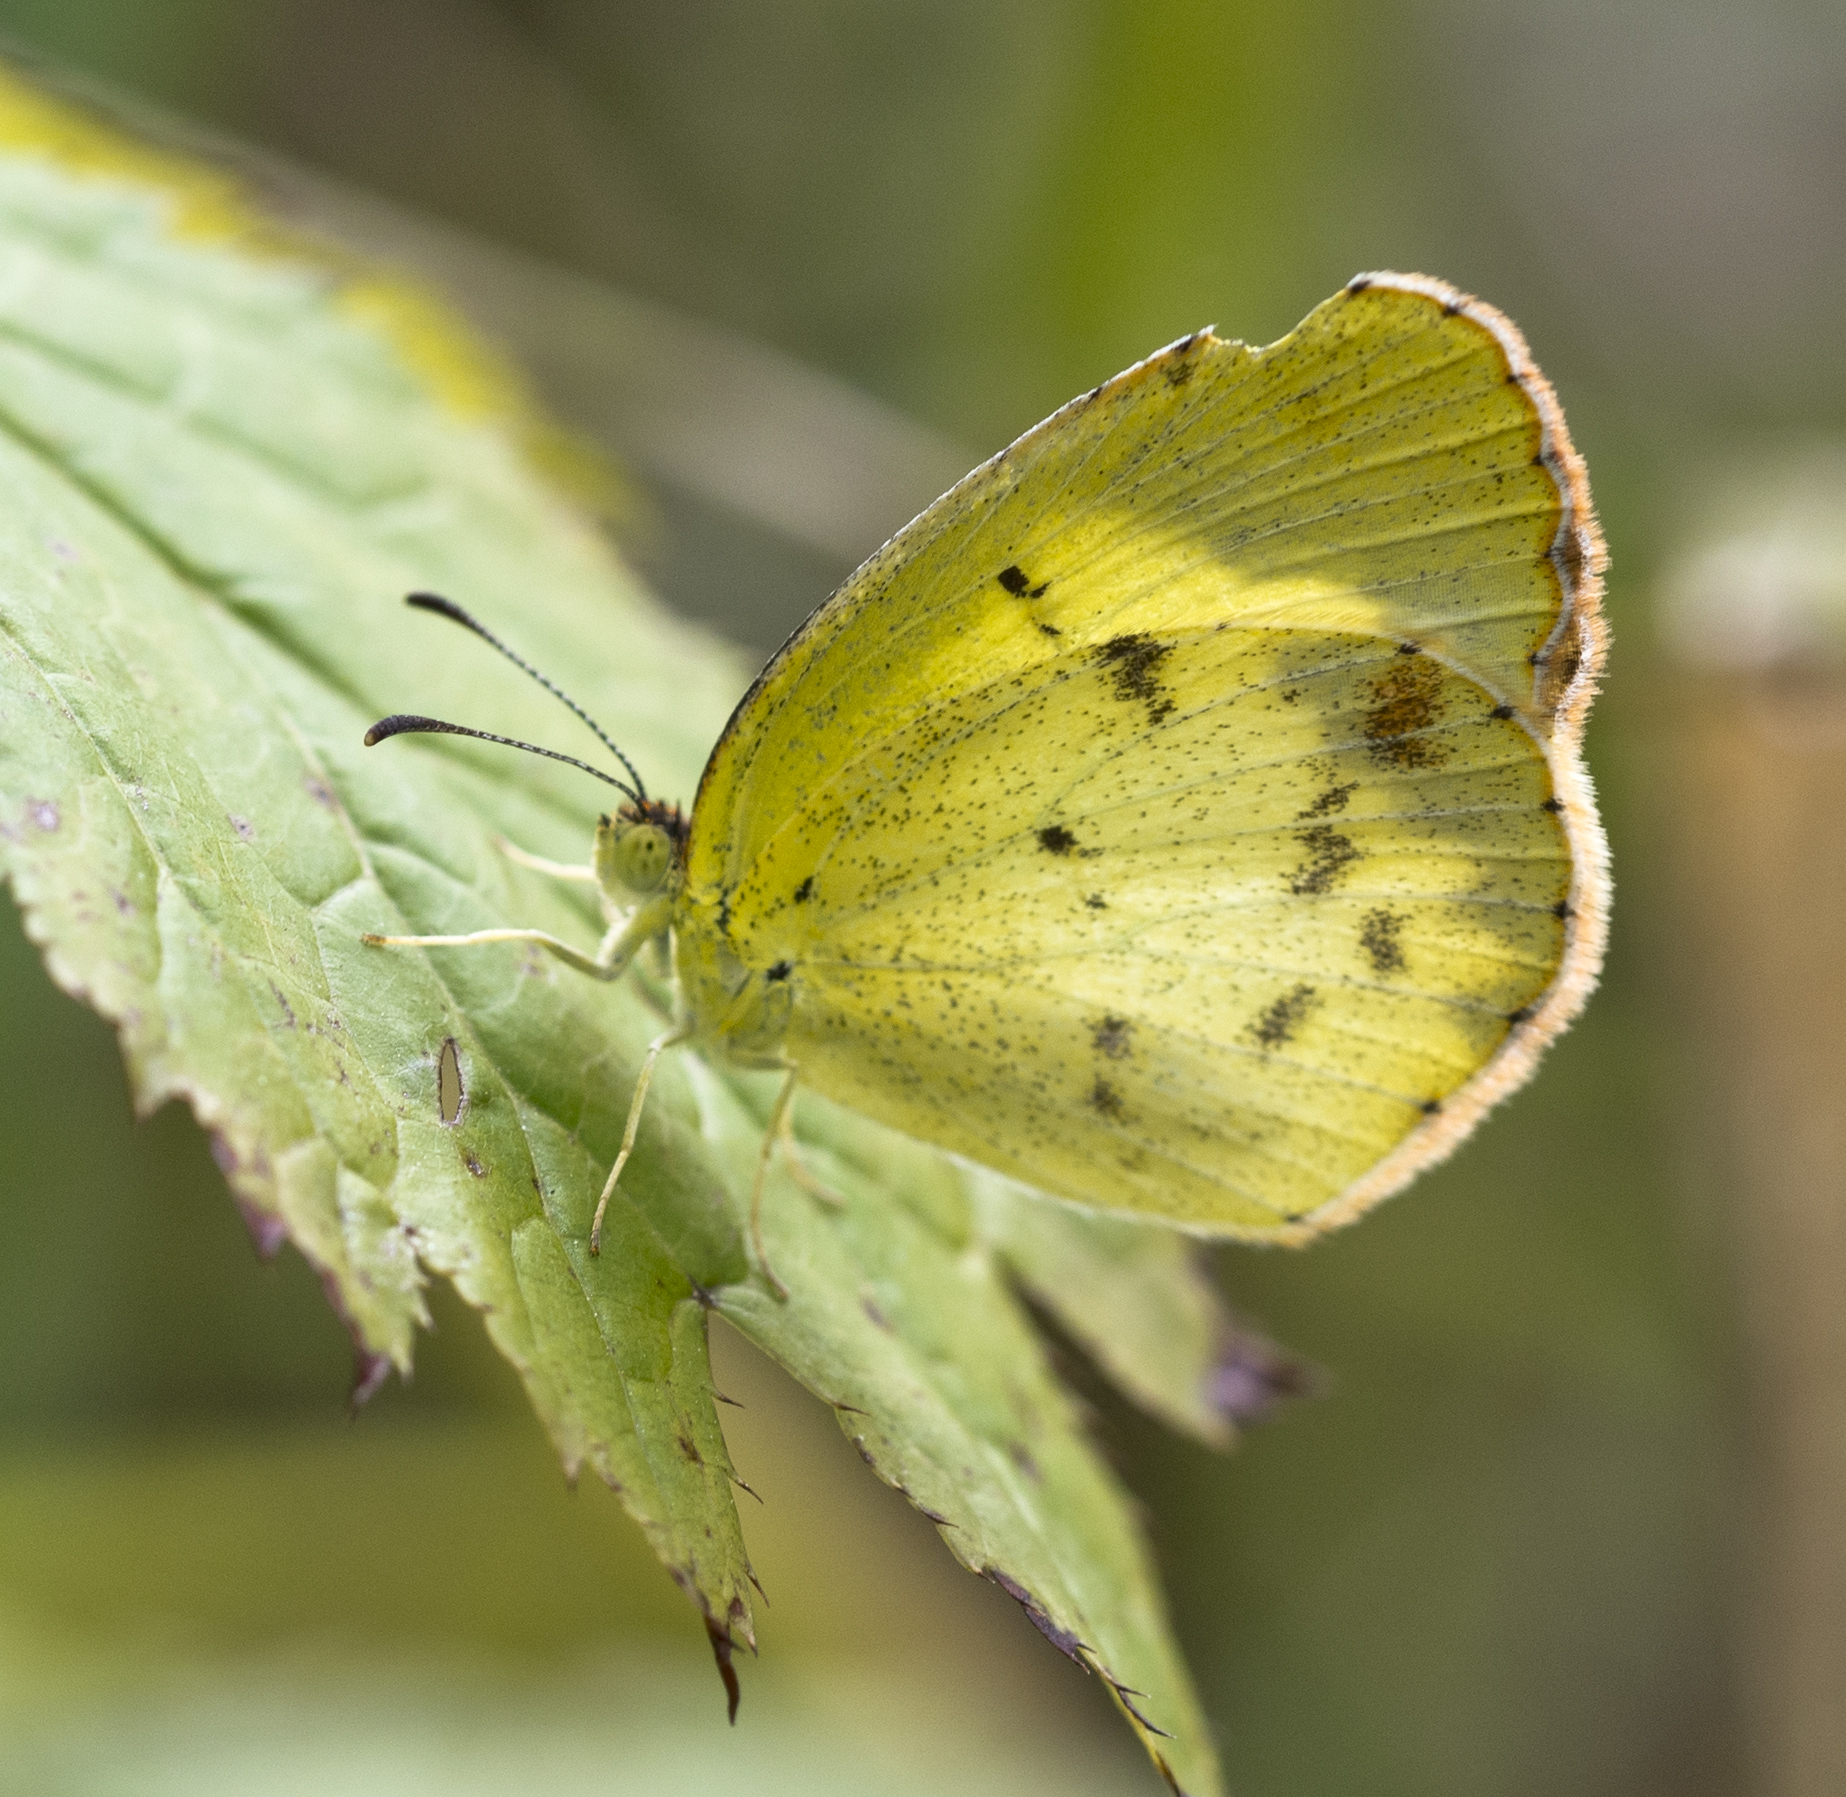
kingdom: Animalia
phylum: Arthropoda
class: Insecta
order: Lepidoptera
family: Pieridae
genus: Pyrisitia
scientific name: Pyrisitia lisa
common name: Little yellow
